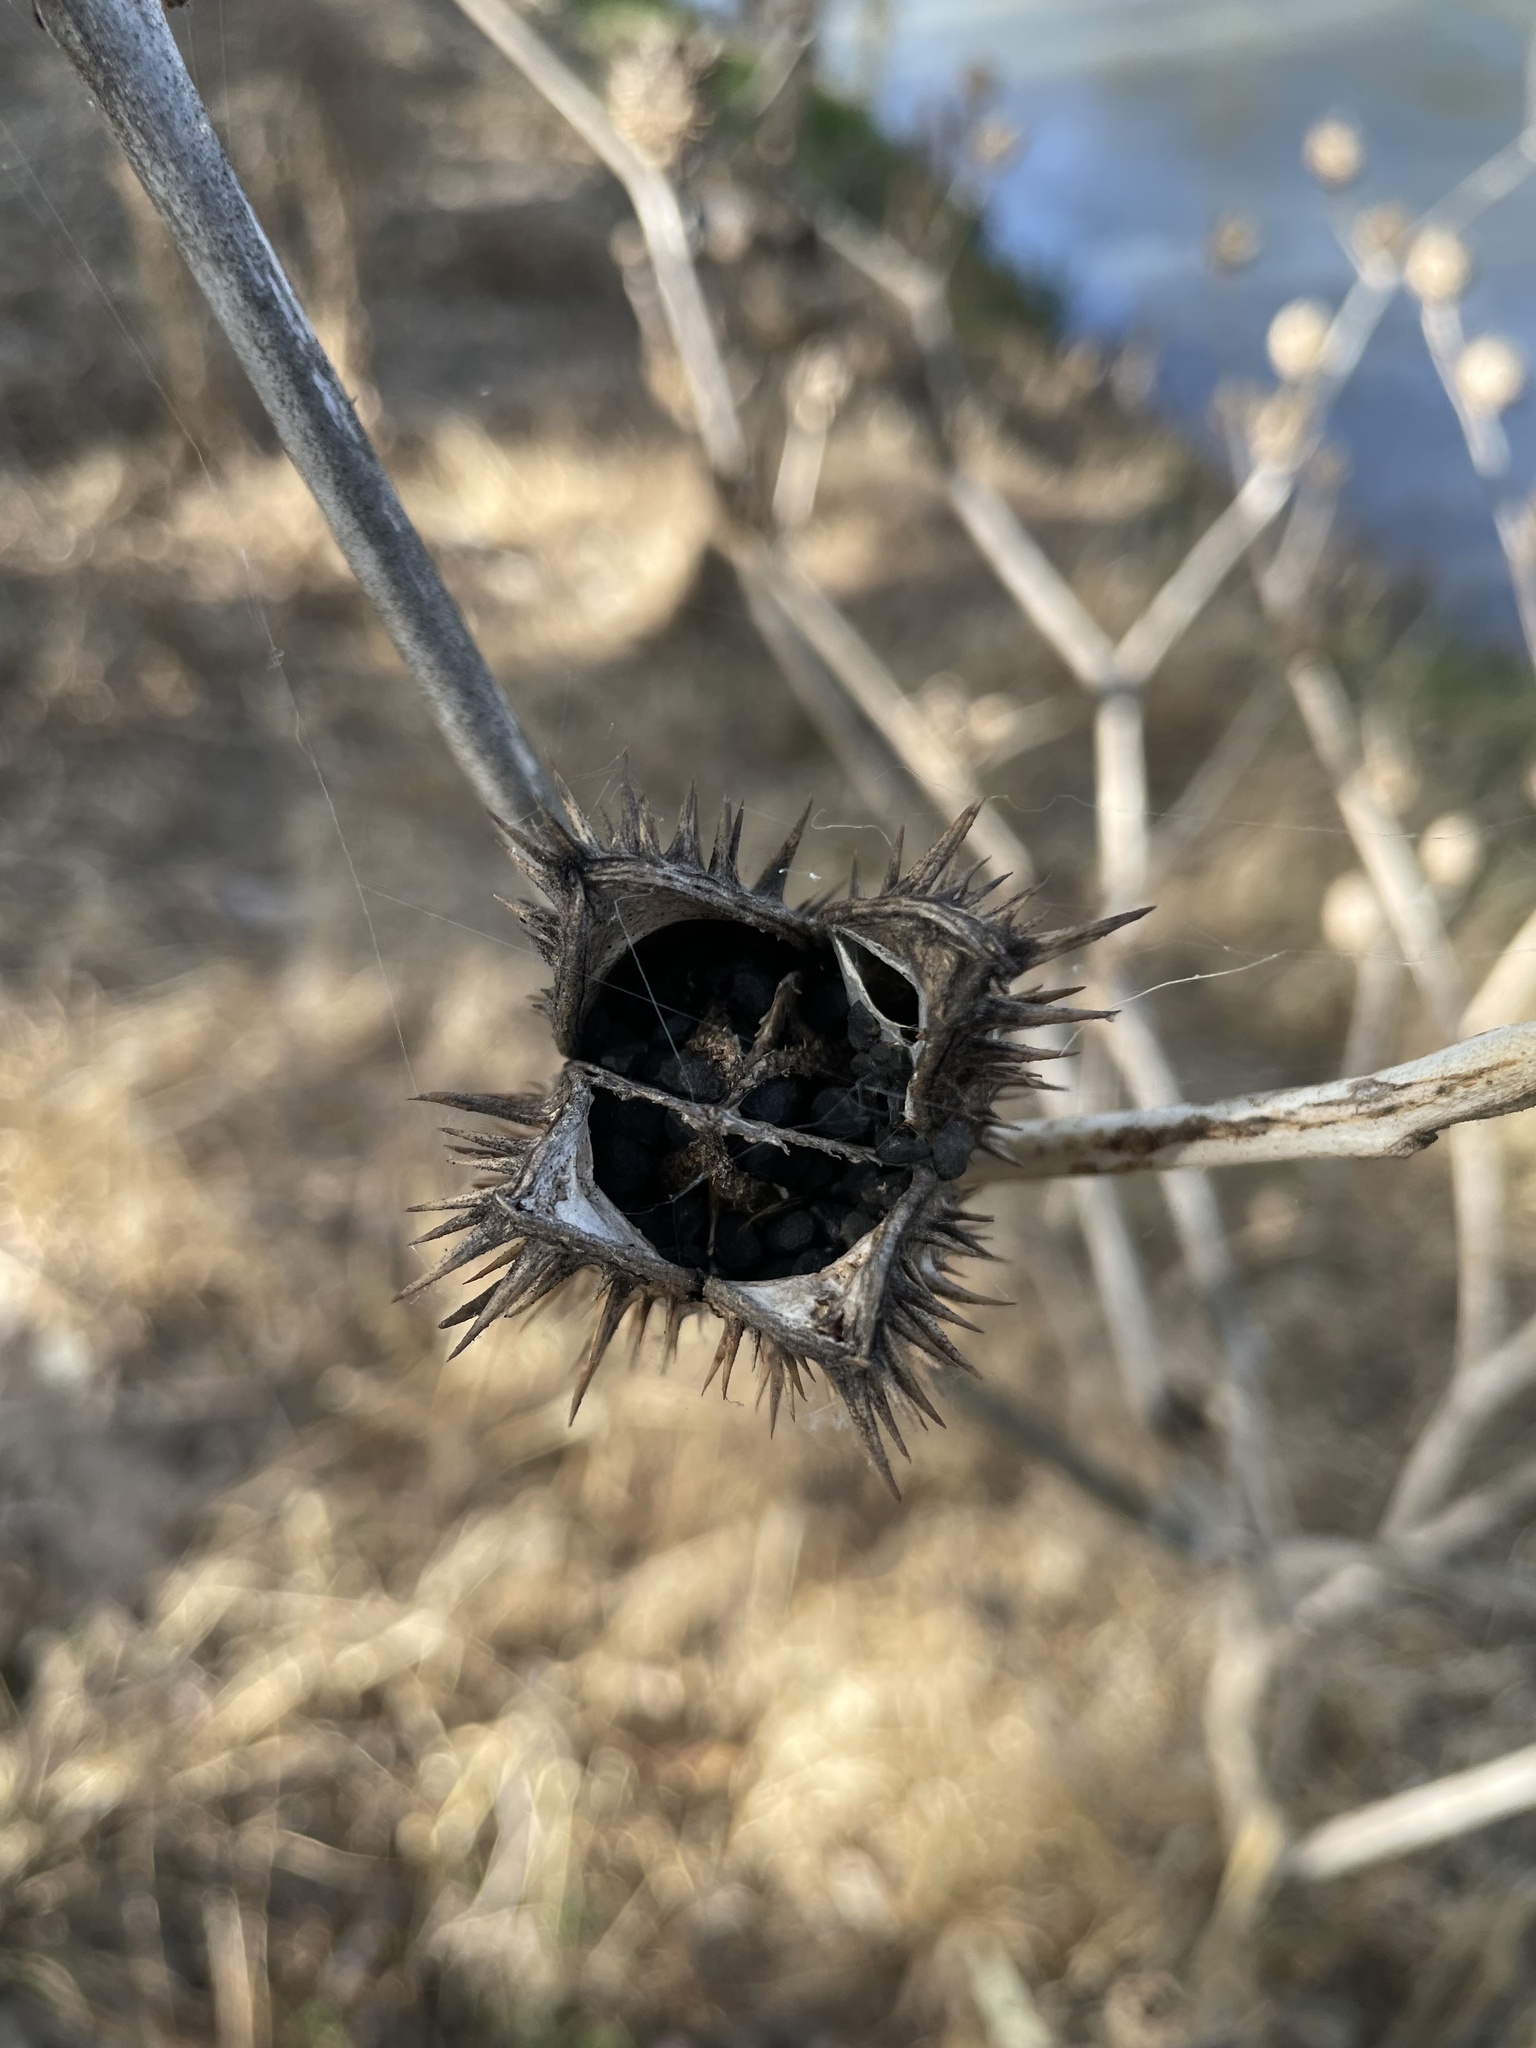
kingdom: Plantae
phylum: Tracheophyta
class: Magnoliopsida
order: Solanales
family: Solanaceae
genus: Datura
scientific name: Datura stramonium
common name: Thorn-apple
